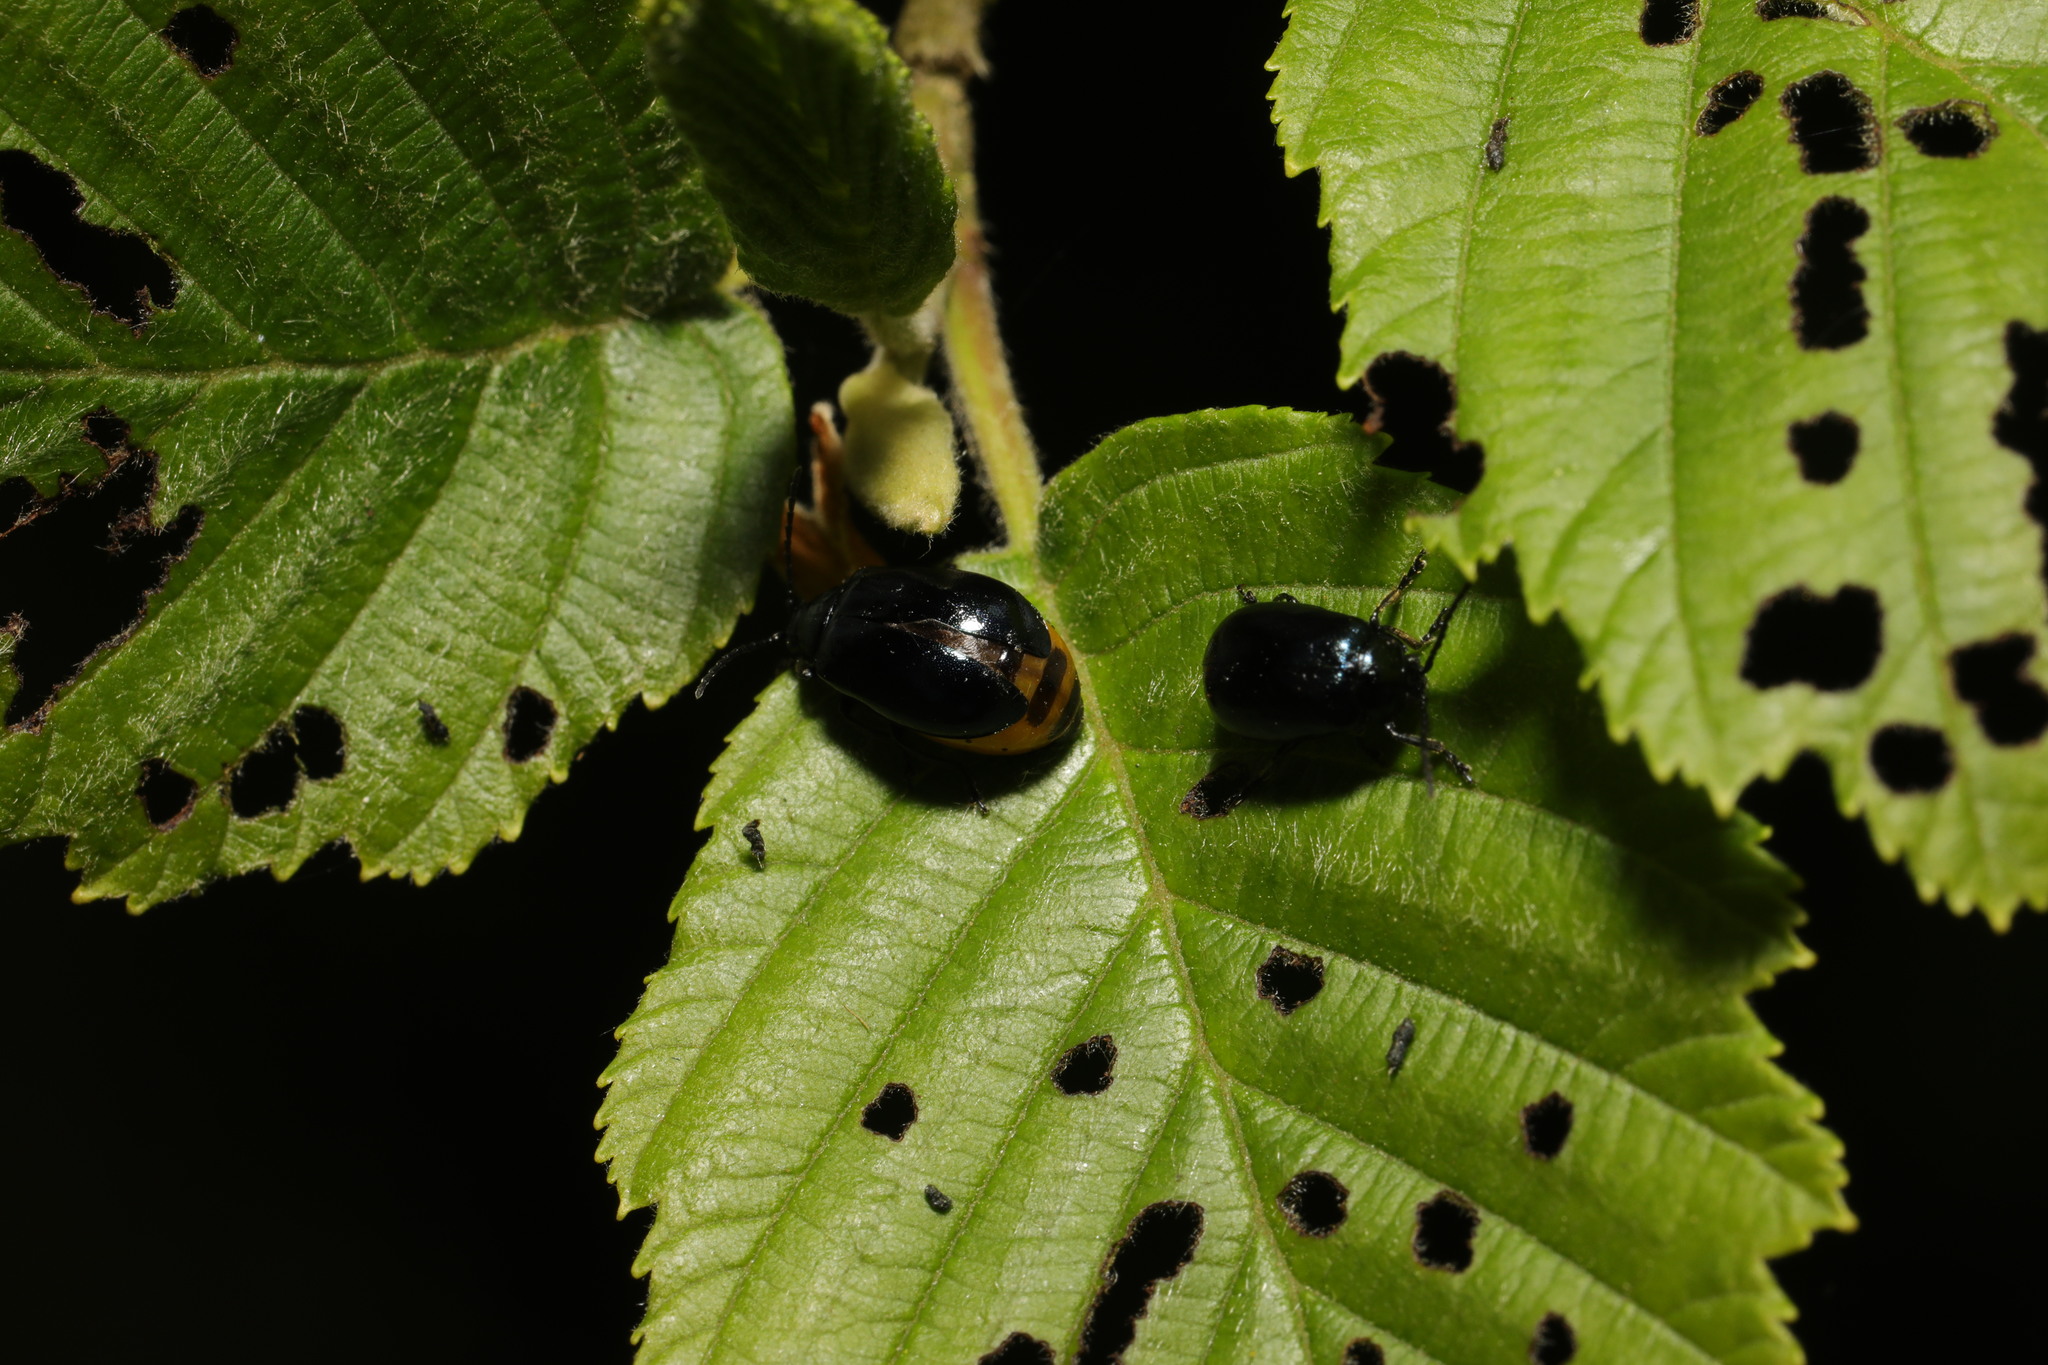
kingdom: Animalia
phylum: Arthropoda
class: Insecta
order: Coleoptera
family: Chrysomelidae
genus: Agelastica
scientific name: Agelastica alni
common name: Alder leaf beetle
